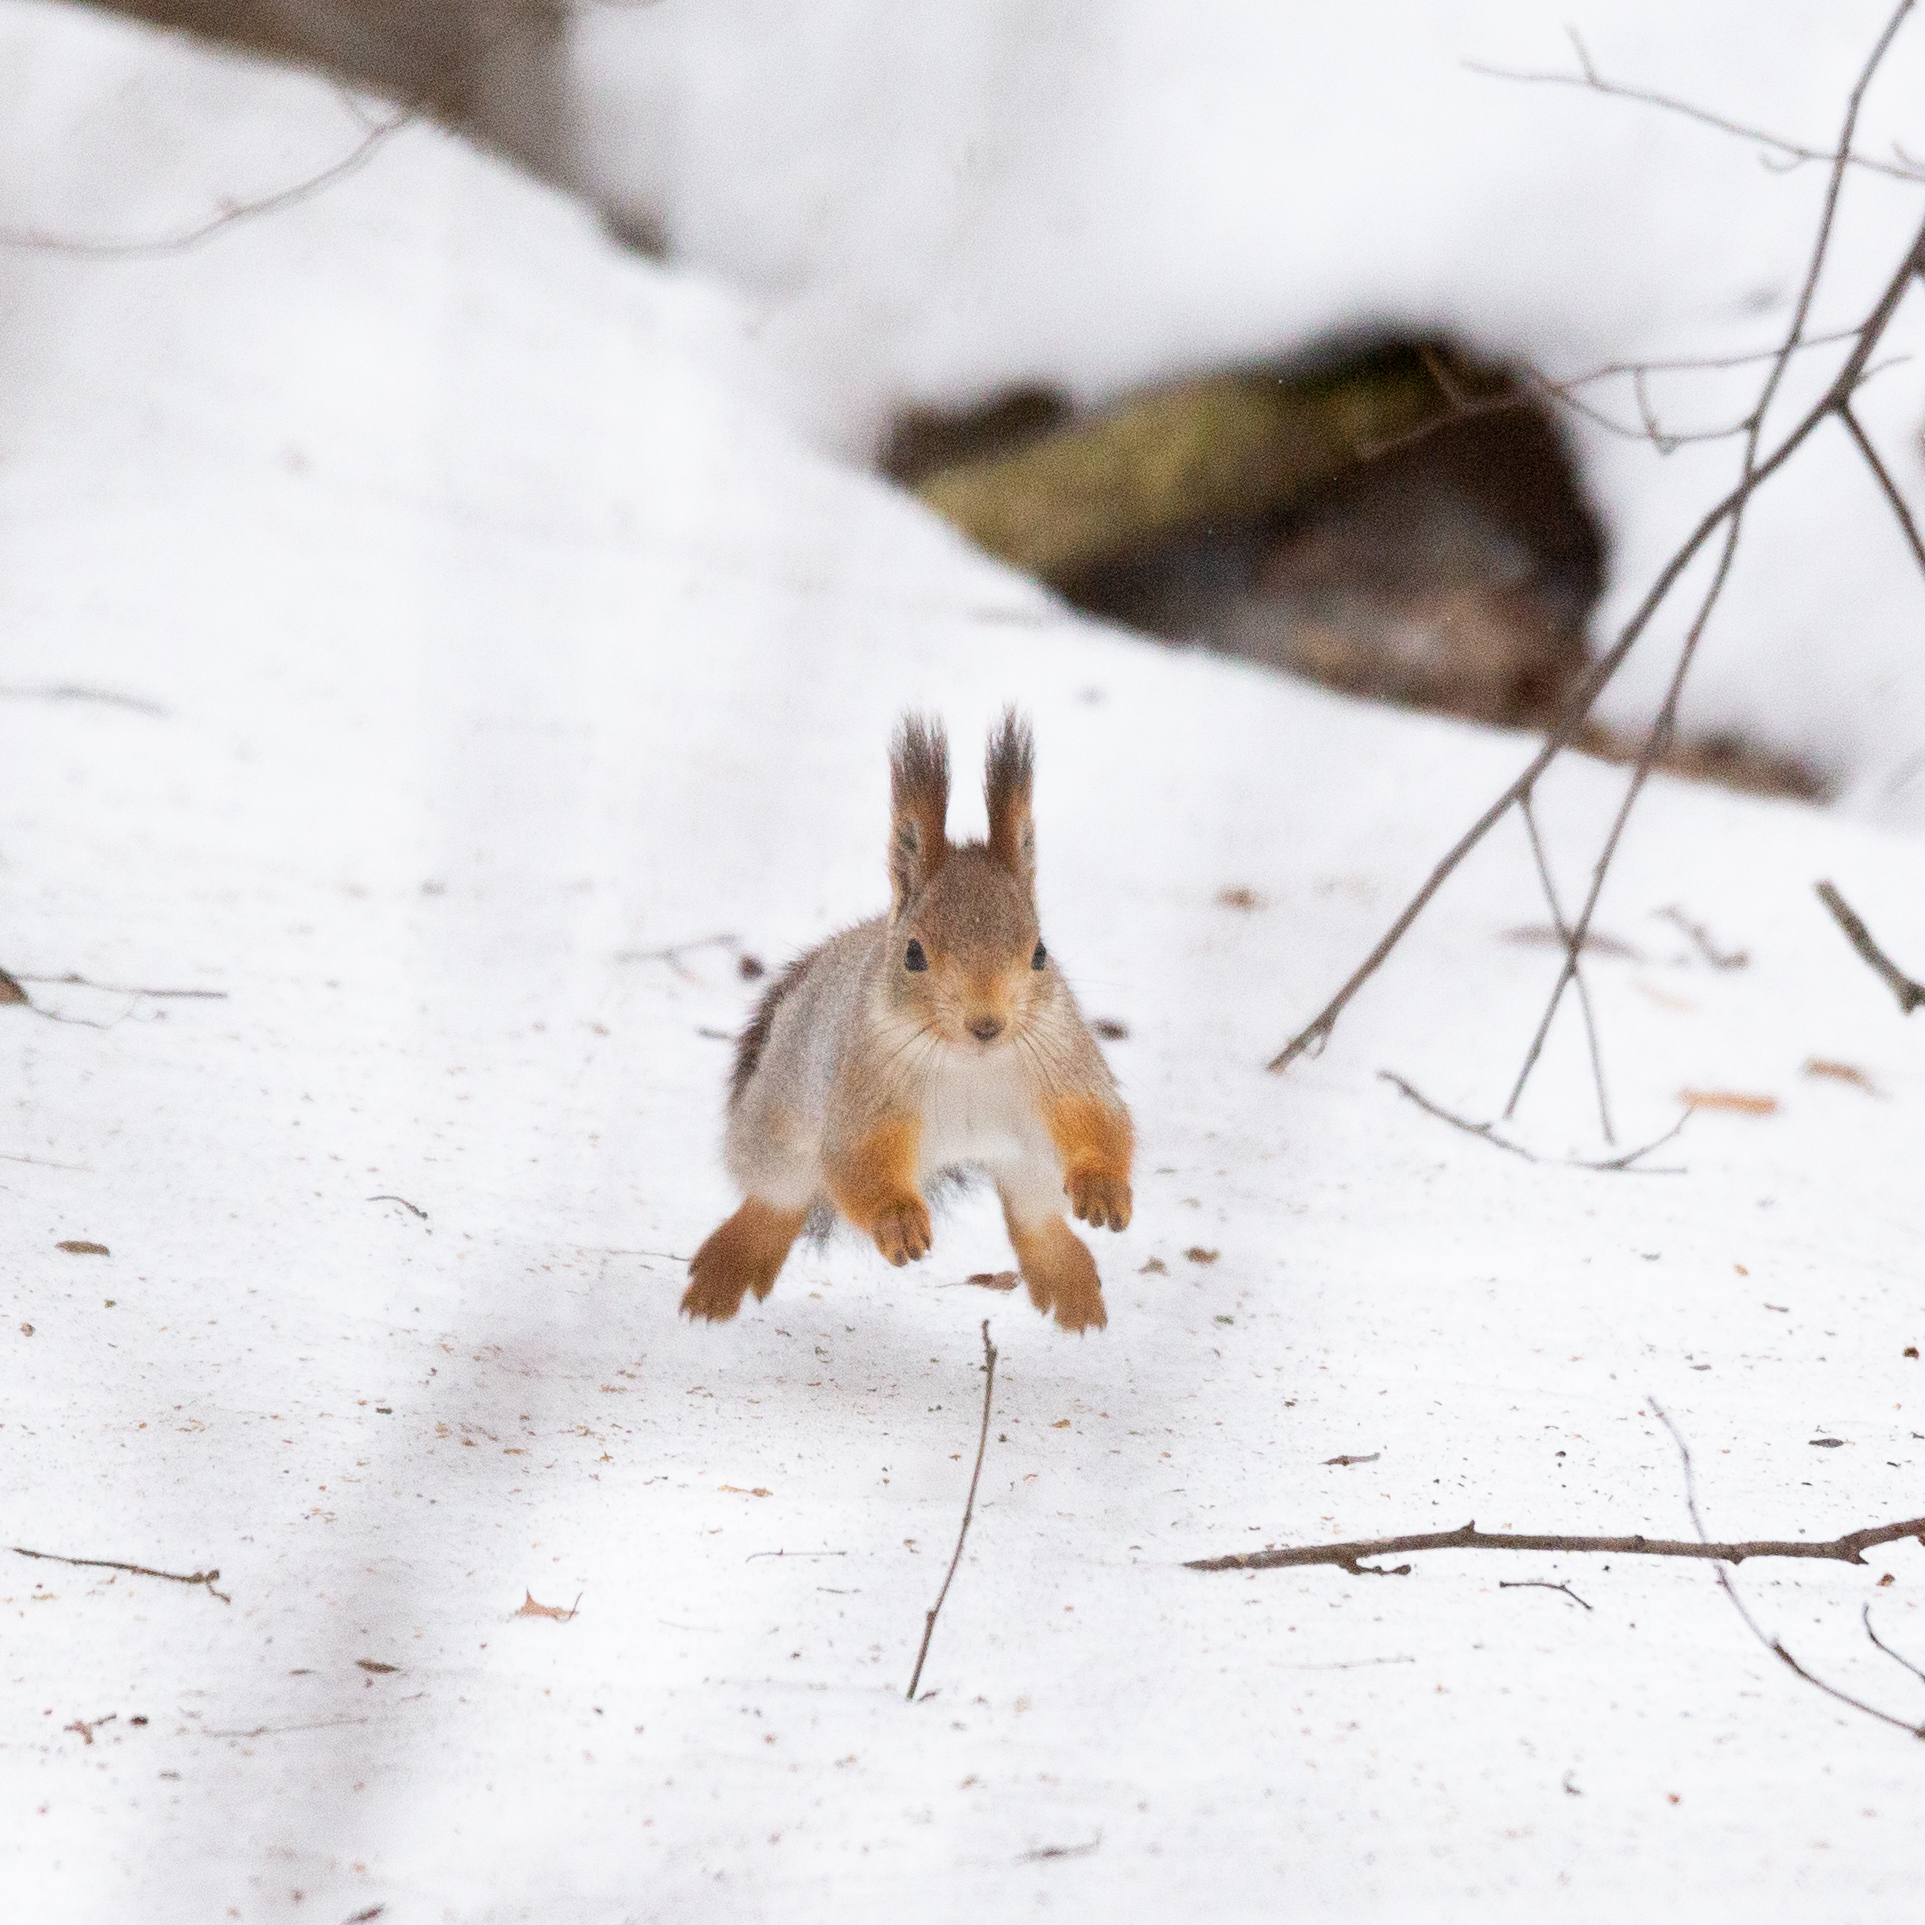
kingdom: Animalia
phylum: Chordata
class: Mammalia
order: Rodentia
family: Sciuridae
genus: Sciurus
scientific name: Sciurus vulgaris
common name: Eurasian red squirrel
